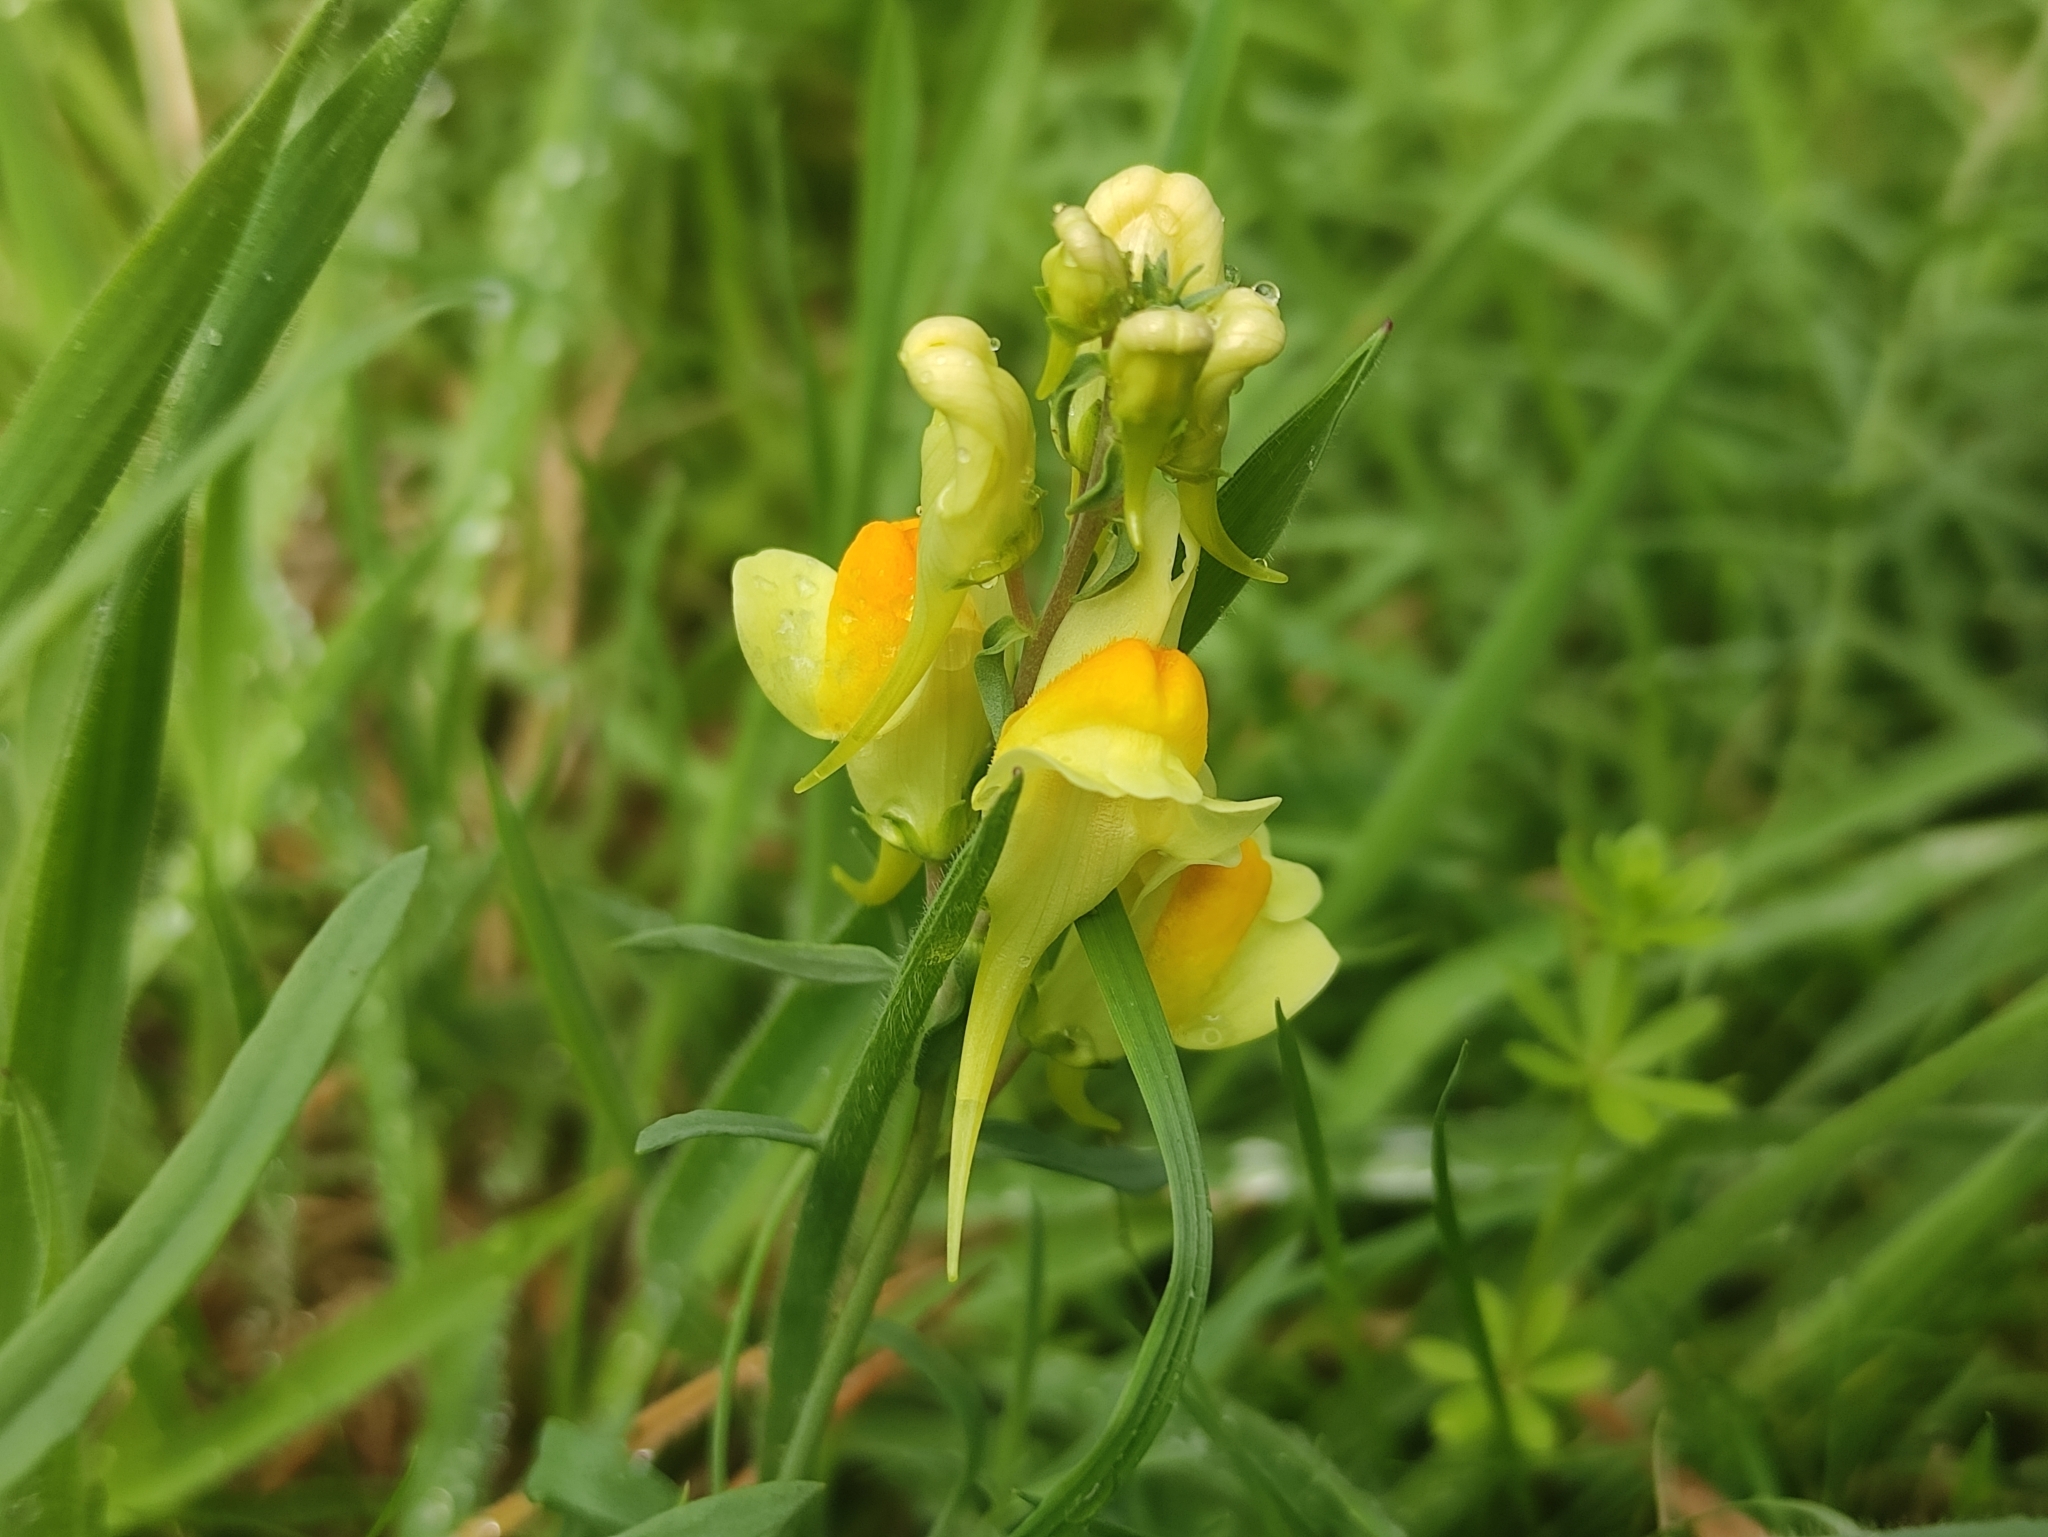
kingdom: Plantae
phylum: Tracheophyta
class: Magnoliopsida
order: Lamiales
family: Plantaginaceae
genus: Linaria
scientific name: Linaria vulgaris
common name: Butter and eggs
